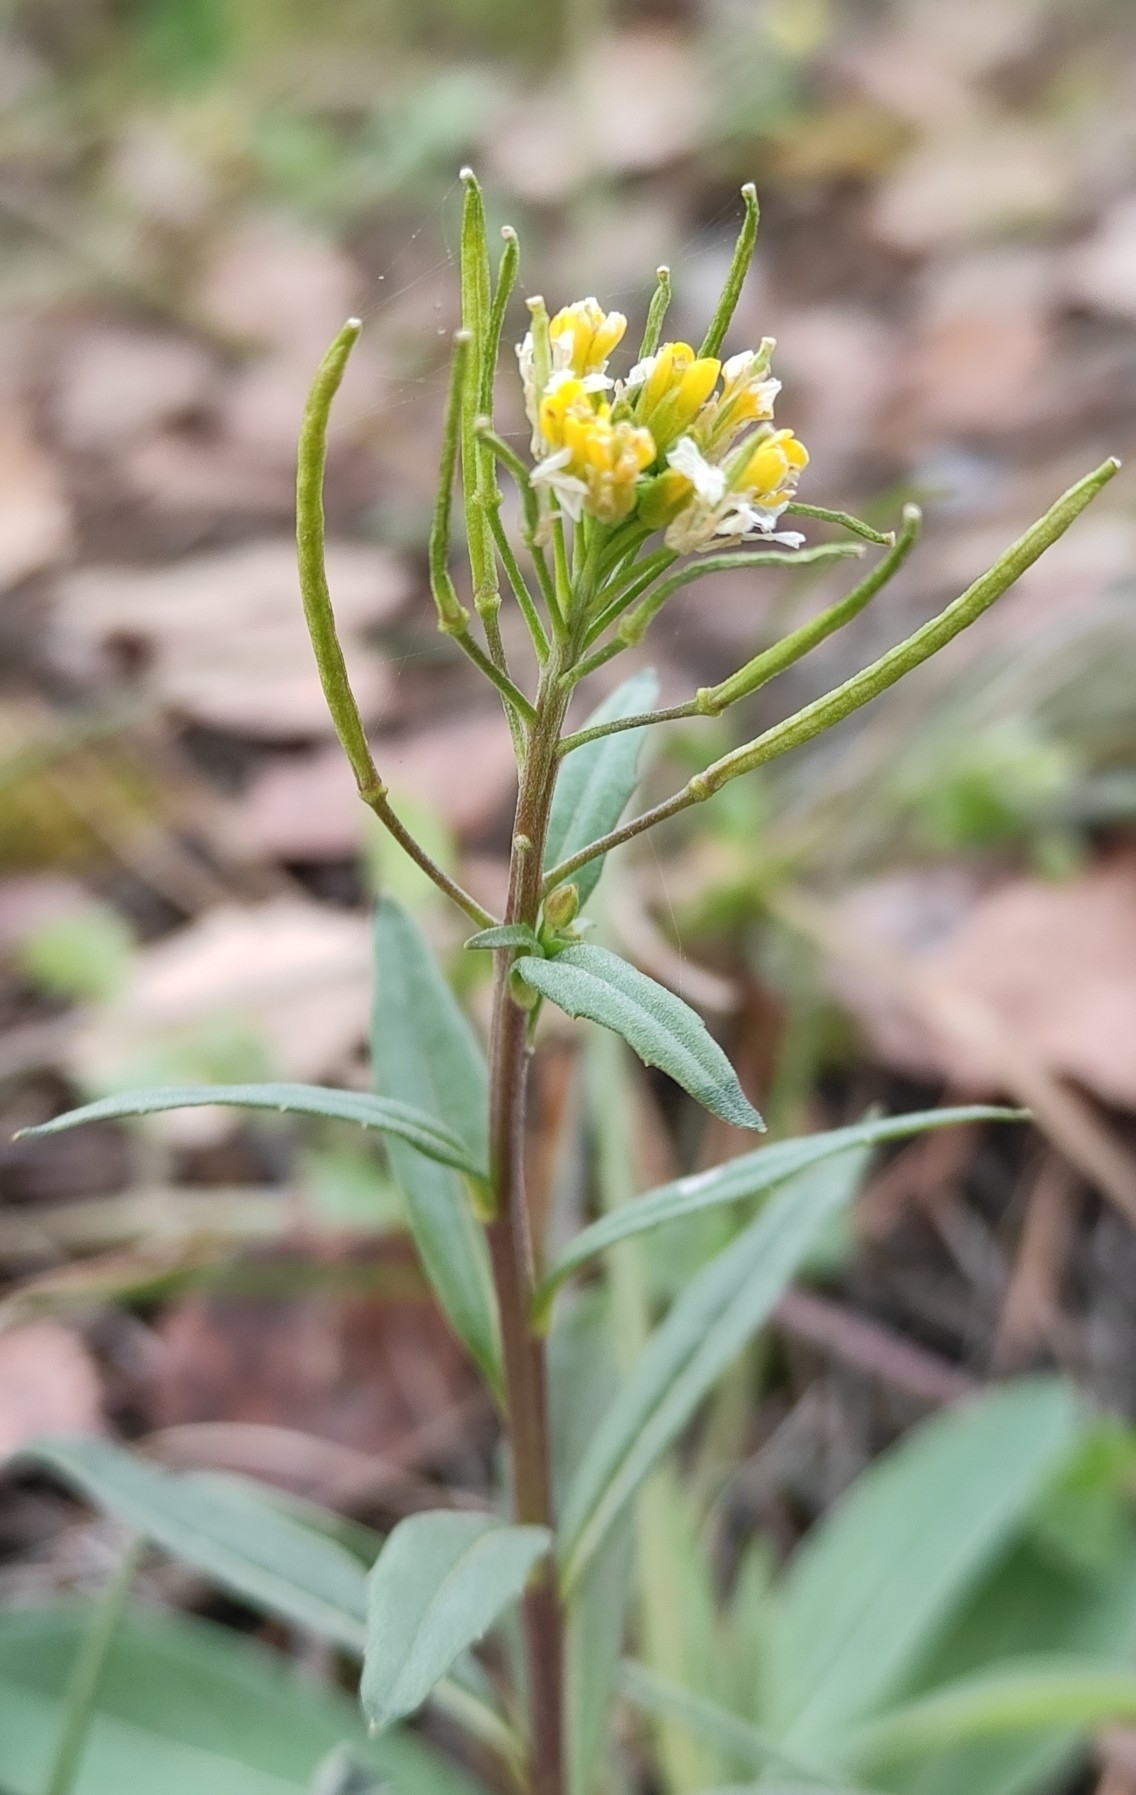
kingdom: Plantae
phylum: Tracheophyta
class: Magnoliopsida
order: Brassicales
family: Brassicaceae
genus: Erysimum
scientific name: Erysimum cheiranthoides
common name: Treacle mustard
